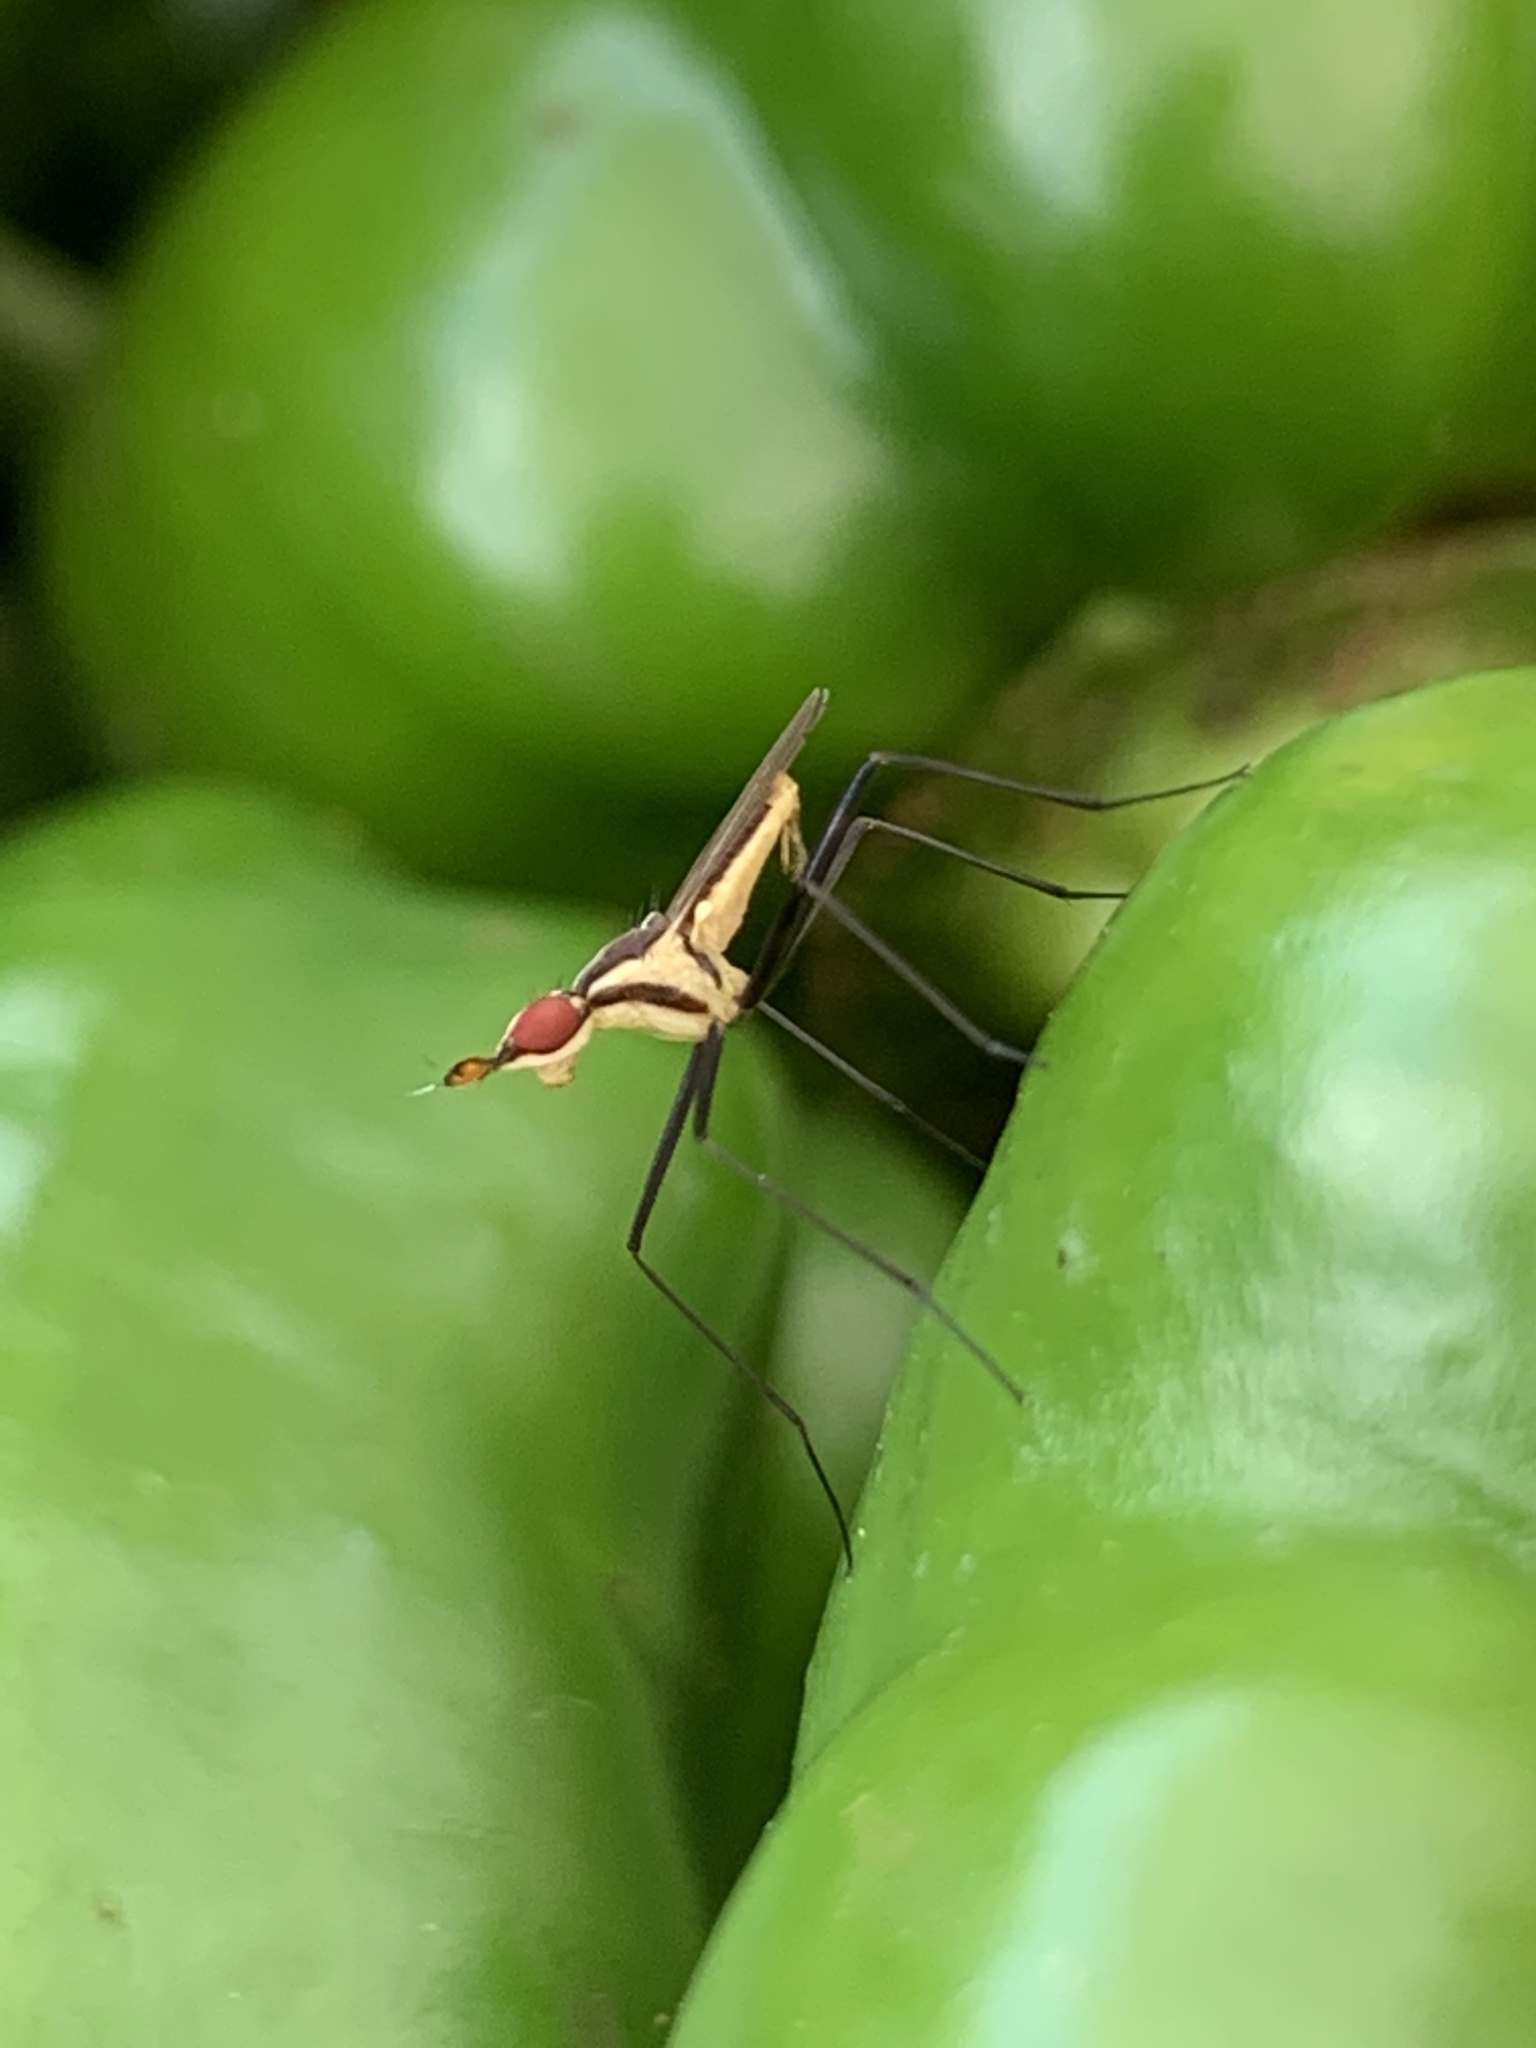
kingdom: Animalia
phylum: Arthropoda
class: Insecta
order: Diptera
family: Neriidae
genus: Telostylinus
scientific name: Telostylinus lineolatus
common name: Banana stalk fly
